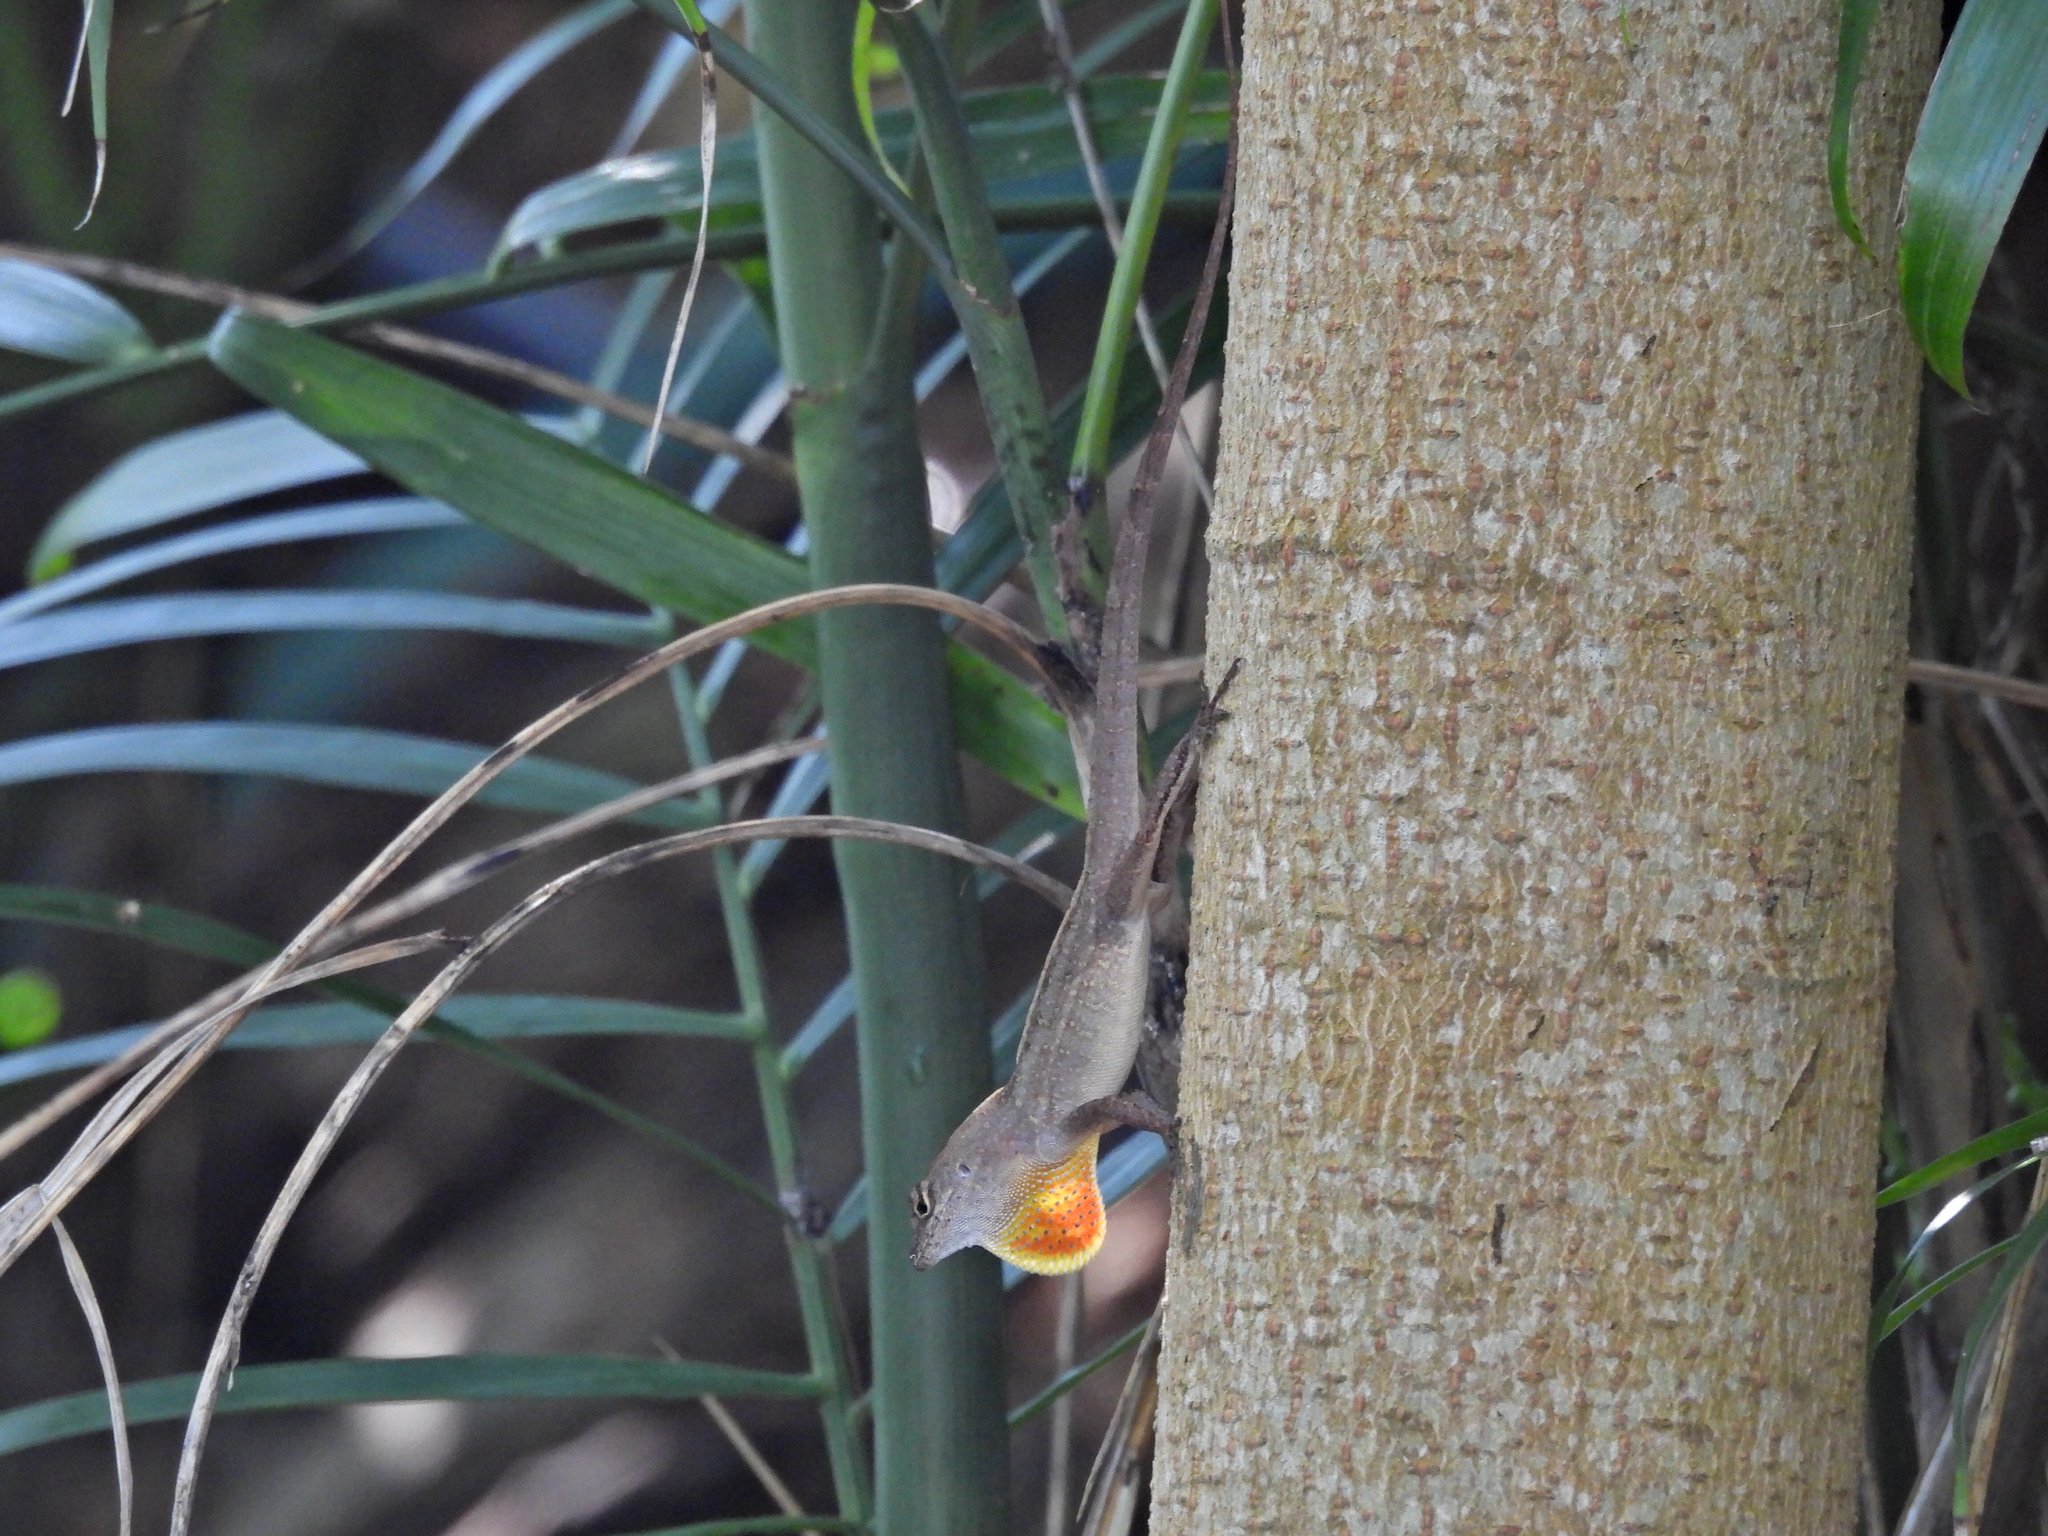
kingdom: Animalia
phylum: Chordata
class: Squamata
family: Dactyloidae
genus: Anolis
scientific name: Anolis sagrei
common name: Brown anole
